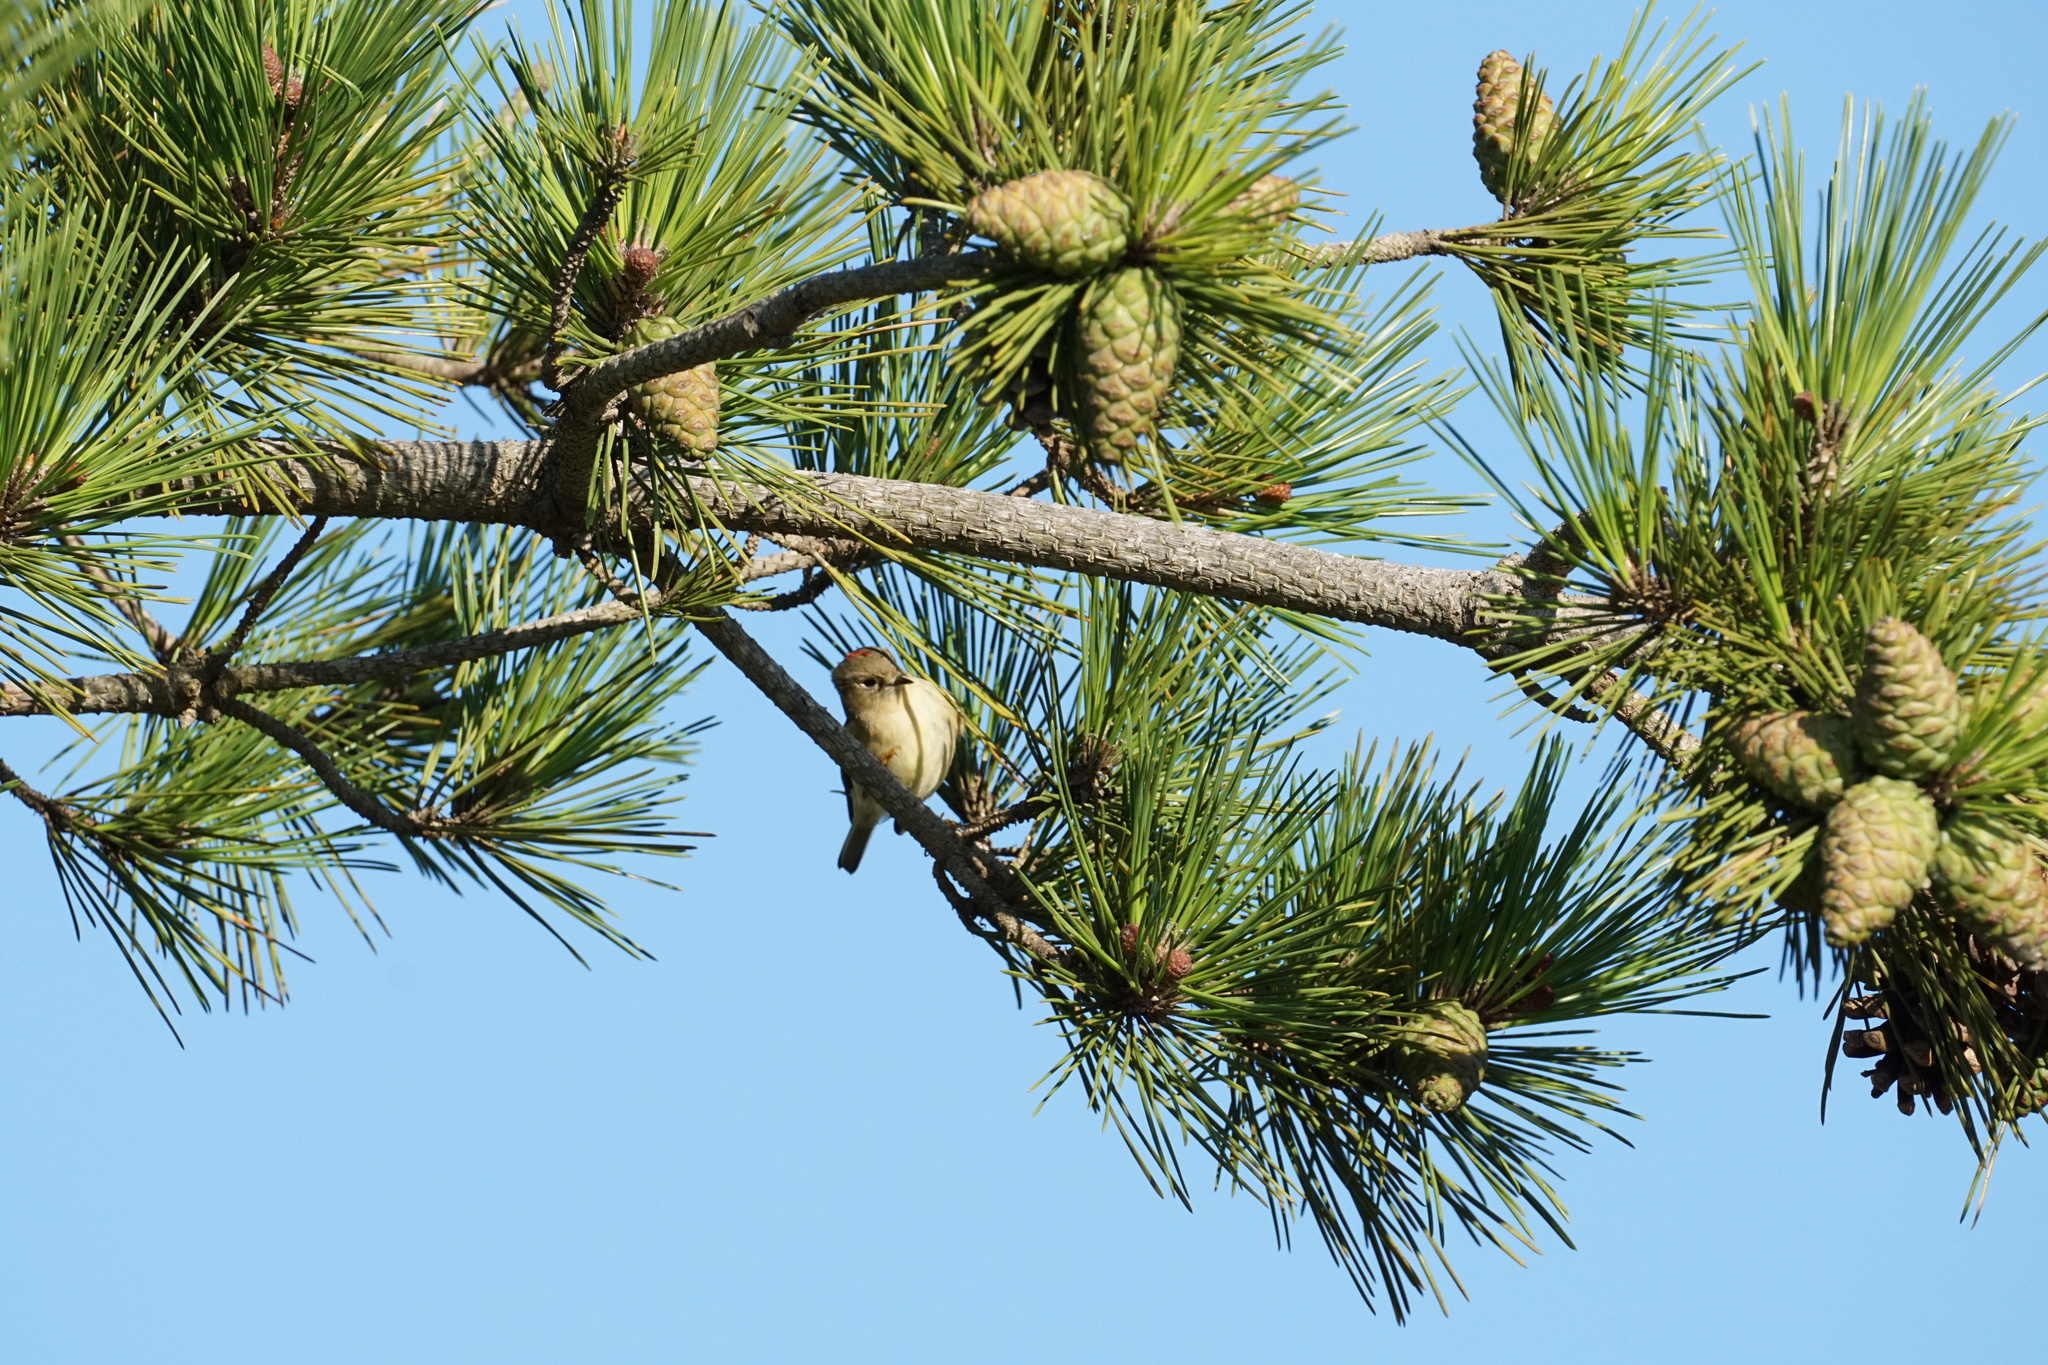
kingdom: Animalia
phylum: Chordata
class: Aves
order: Passeriformes
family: Regulidae
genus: Regulus
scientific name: Regulus calendula
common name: Ruby-crowned kinglet
